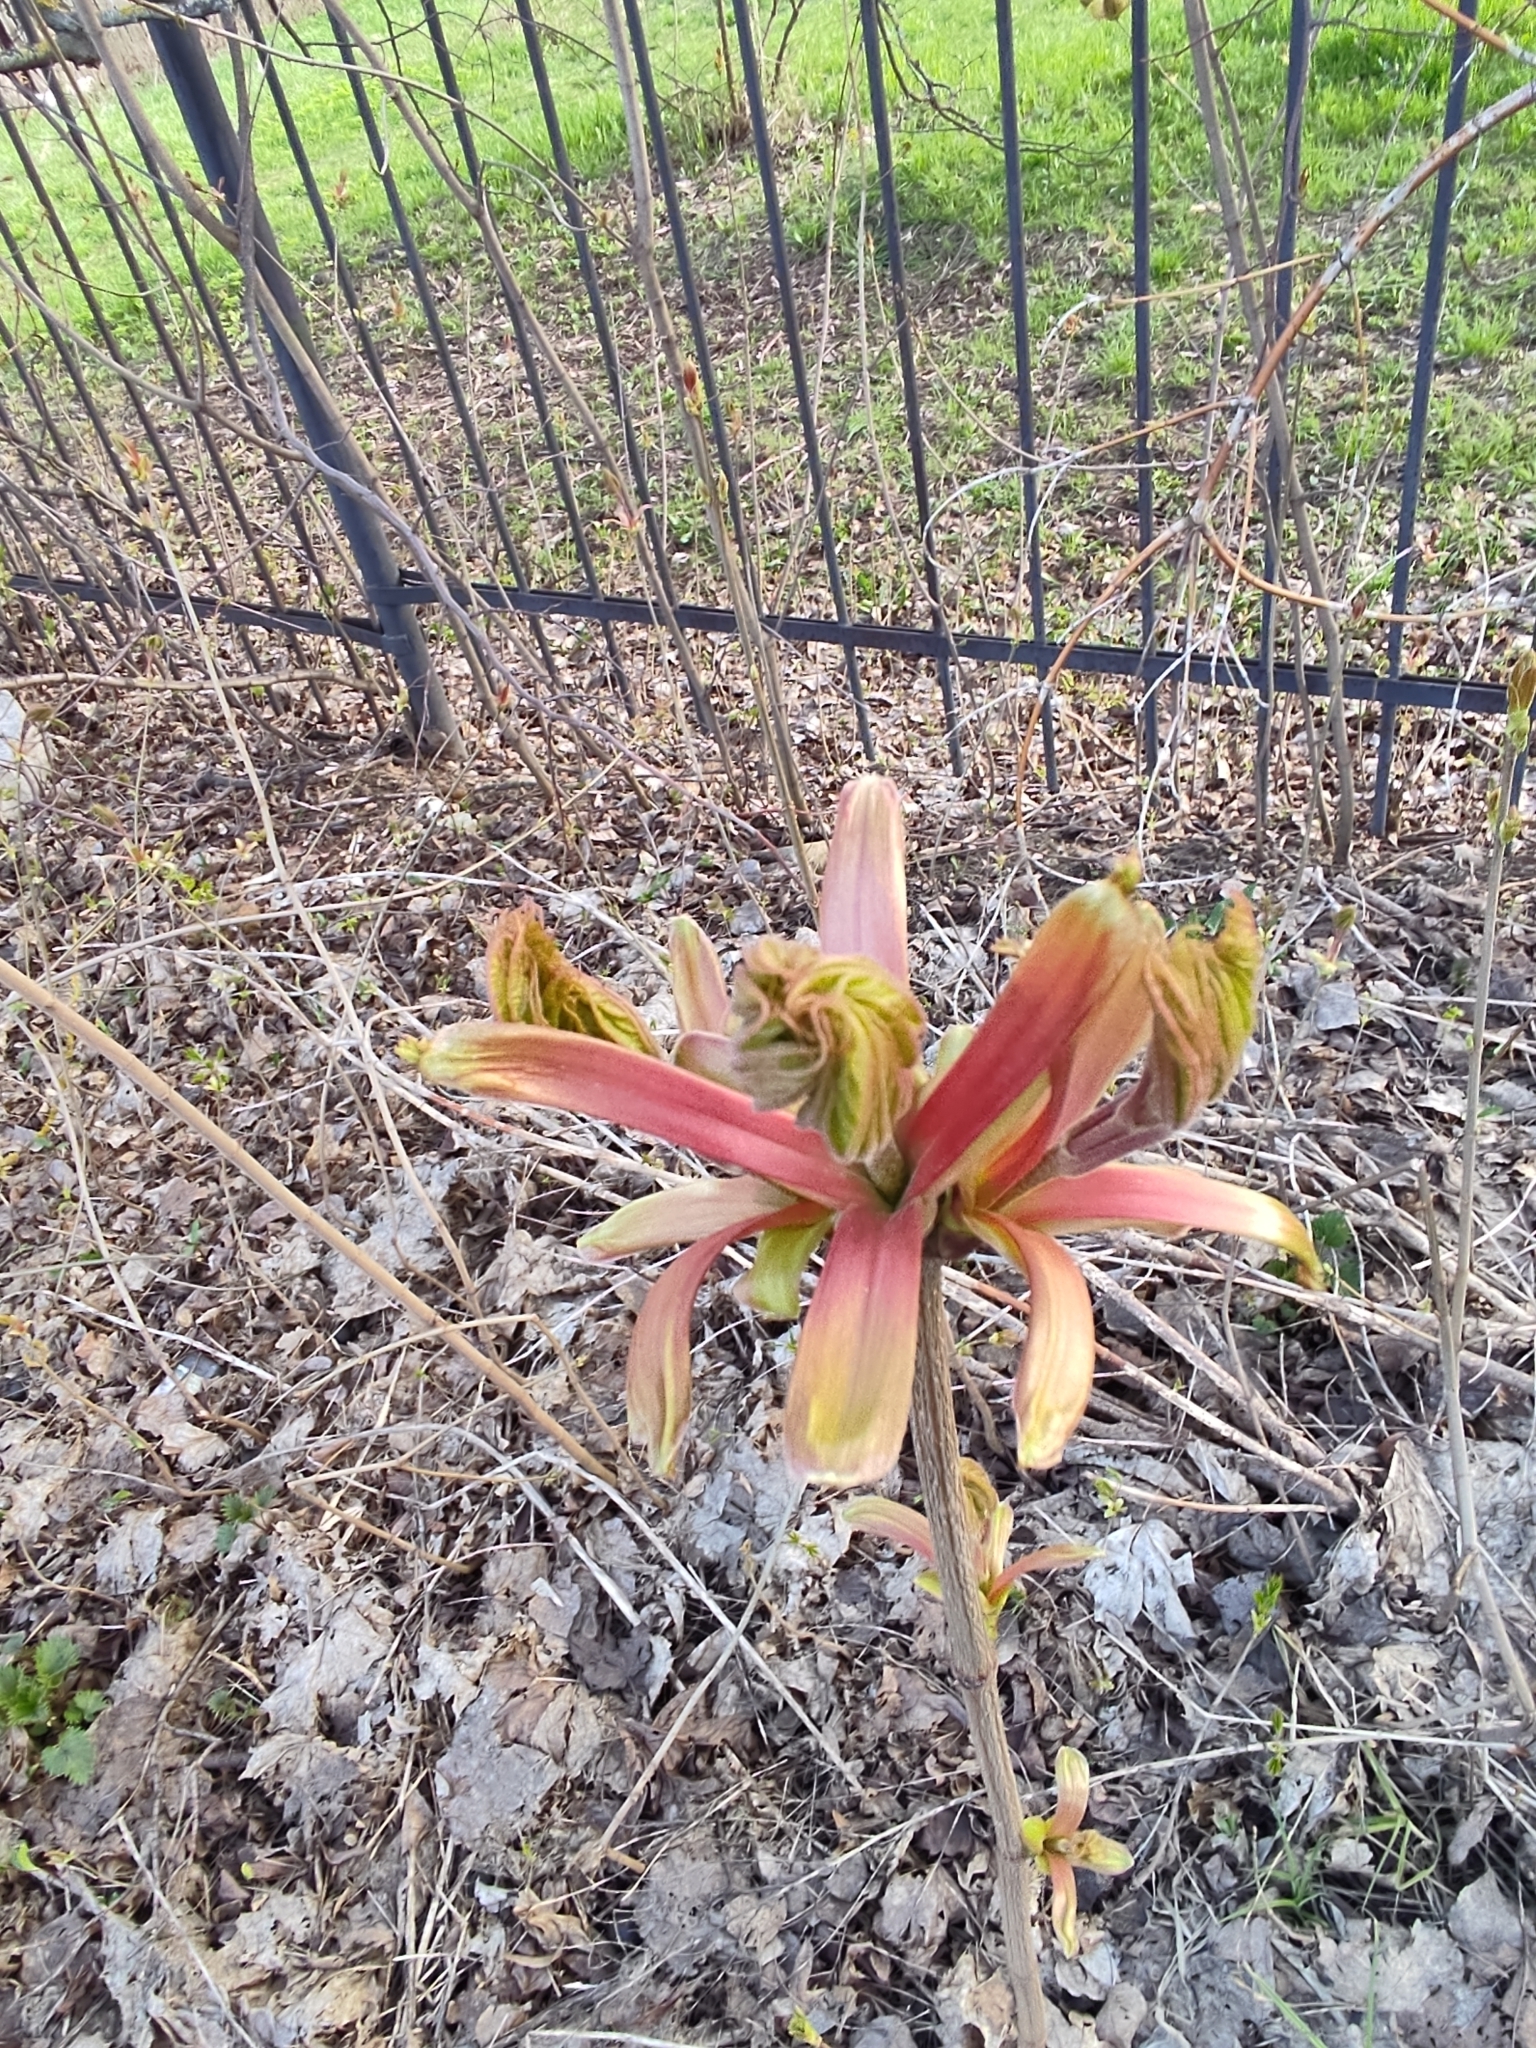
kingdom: Plantae
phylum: Tracheophyta
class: Magnoliopsida
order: Sapindales
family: Sapindaceae
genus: Acer
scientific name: Acer platanoides
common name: Norway maple
